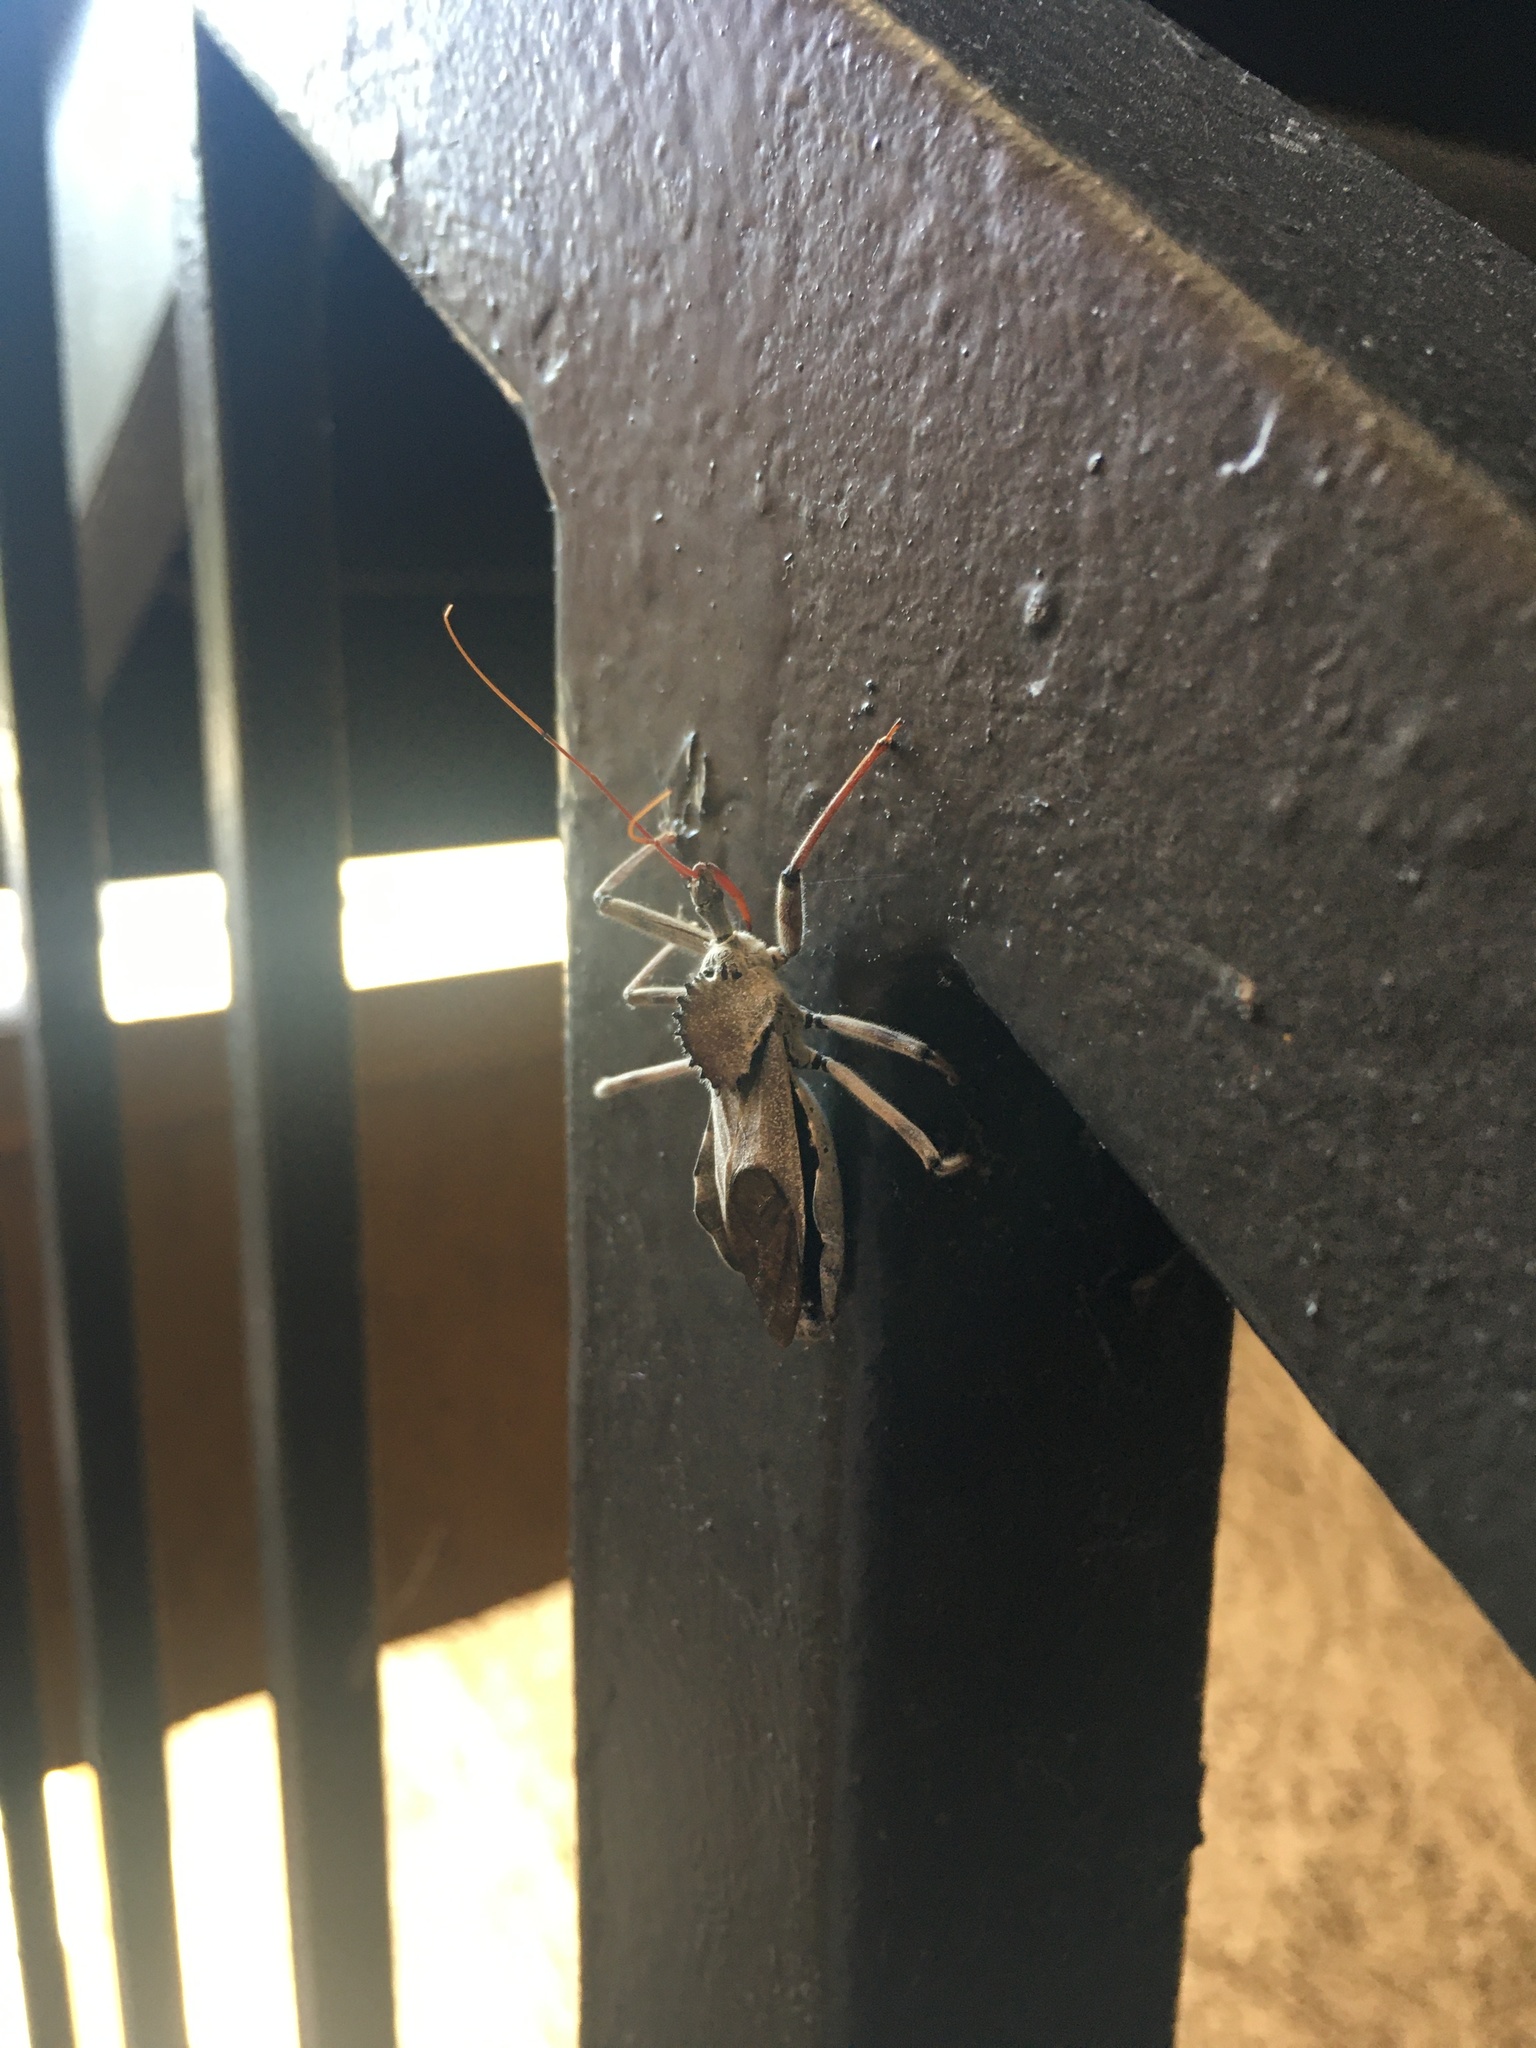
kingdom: Animalia
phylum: Arthropoda
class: Insecta
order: Hemiptera
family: Reduviidae
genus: Arilus
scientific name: Arilus cristatus
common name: North american wheel bug
